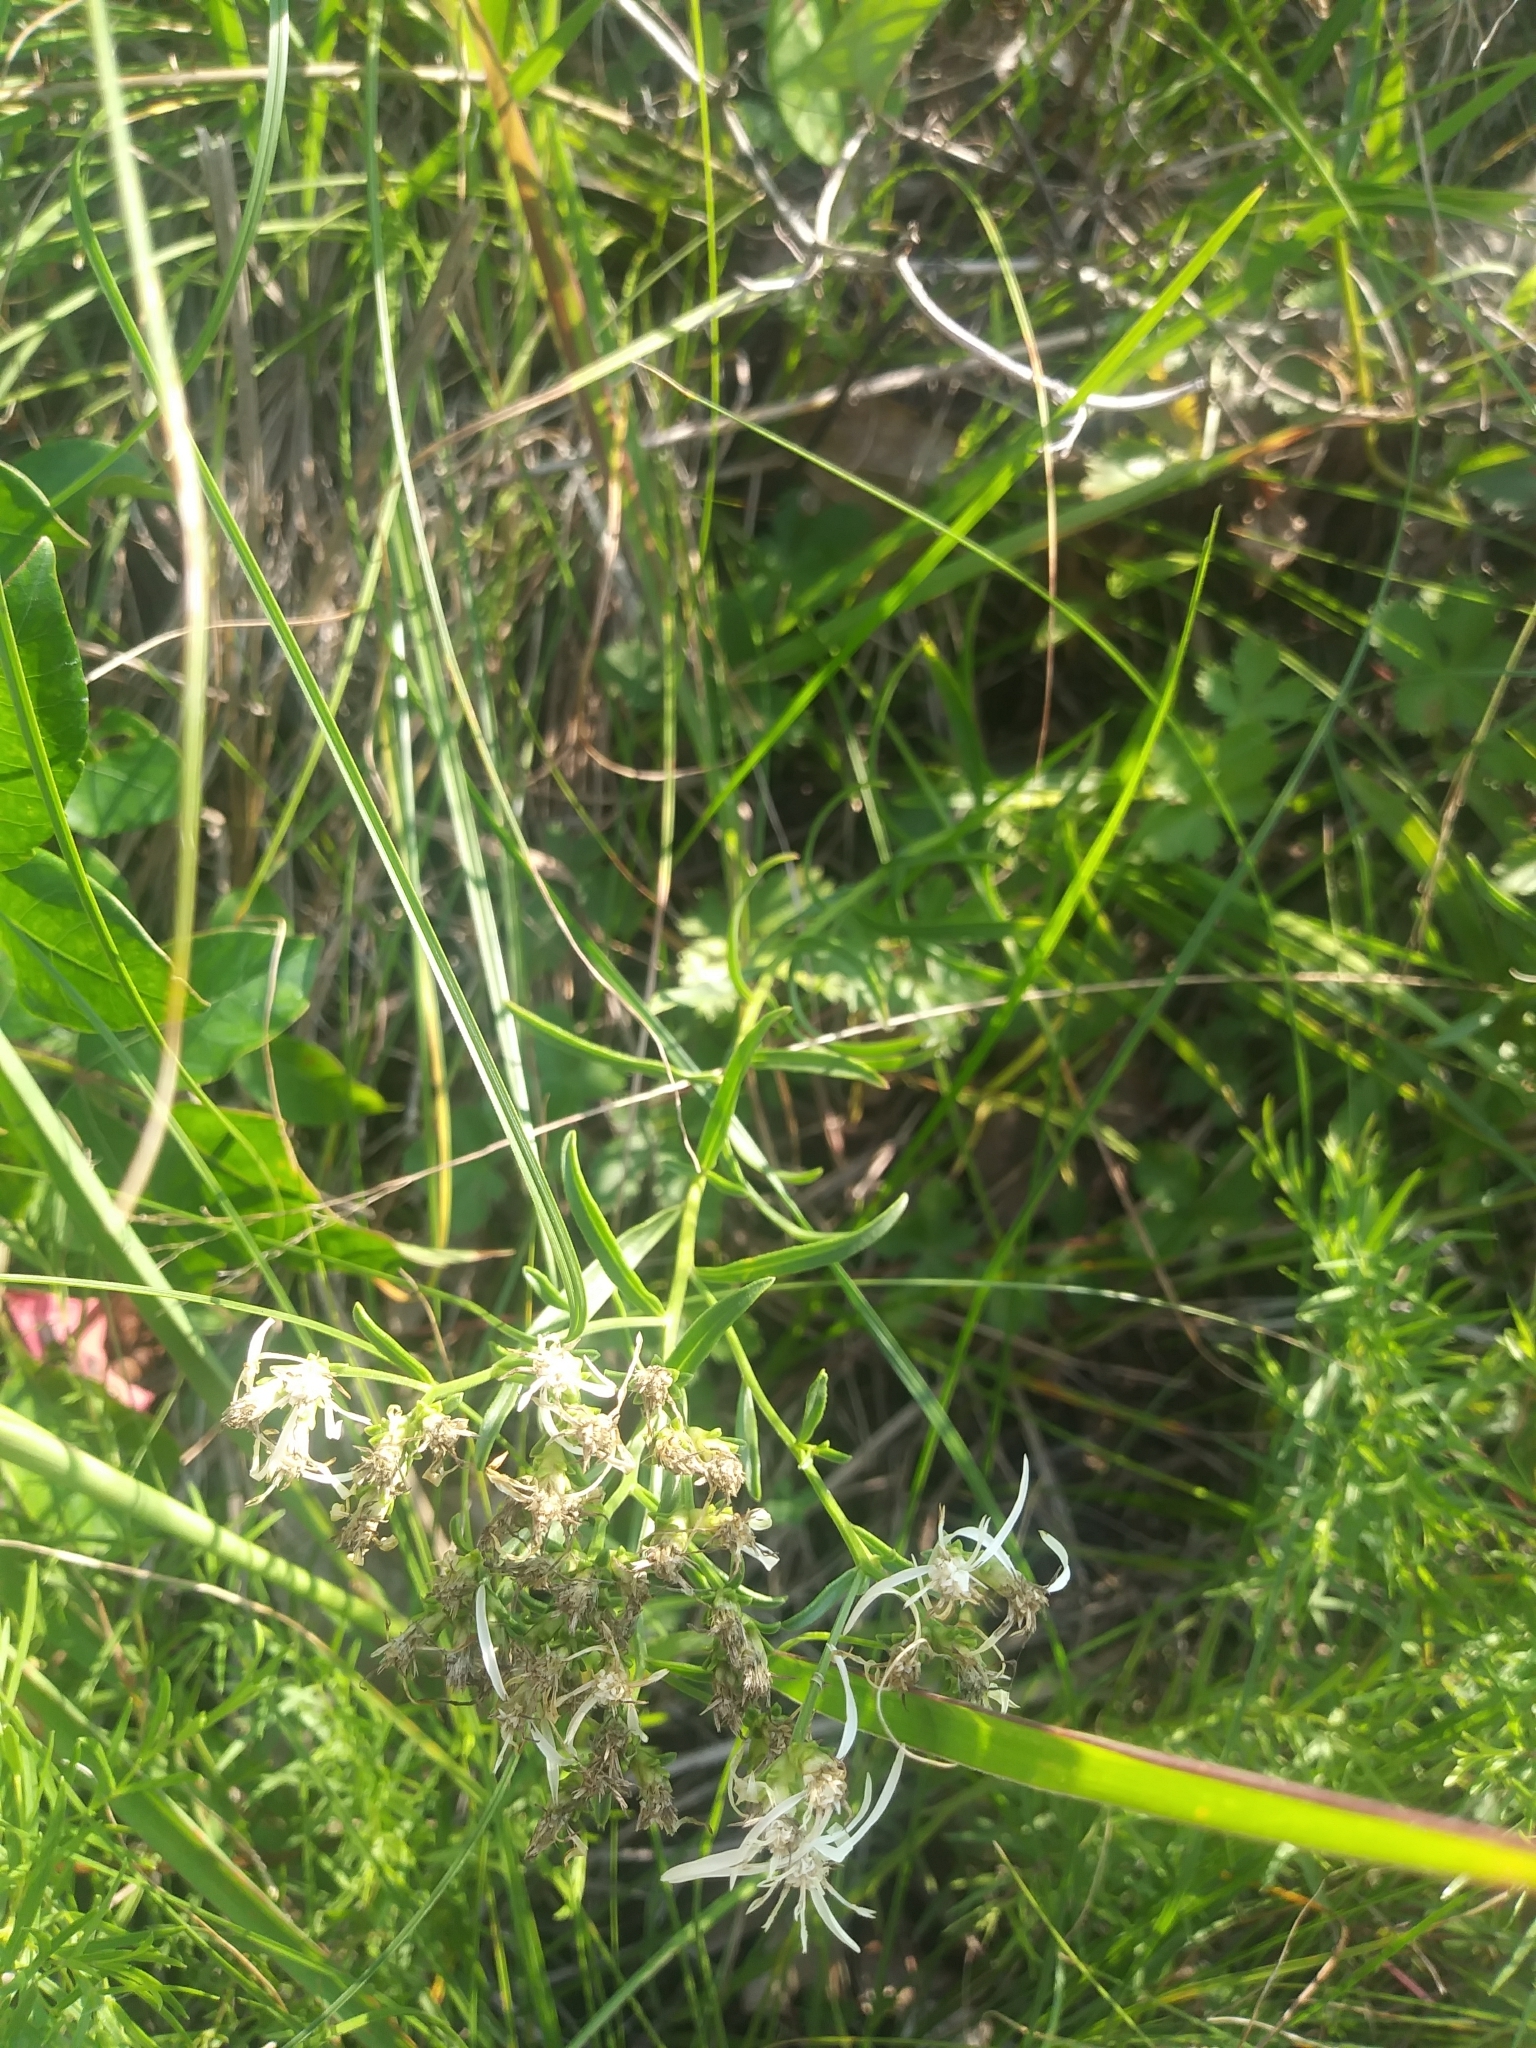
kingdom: Plantae
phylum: Tracheophyta
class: Magnoliopsida
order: Asterales
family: Asteraceae
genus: Sericocarpus
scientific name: Sericocarpus linifolius
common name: Narrow-leaf aster
